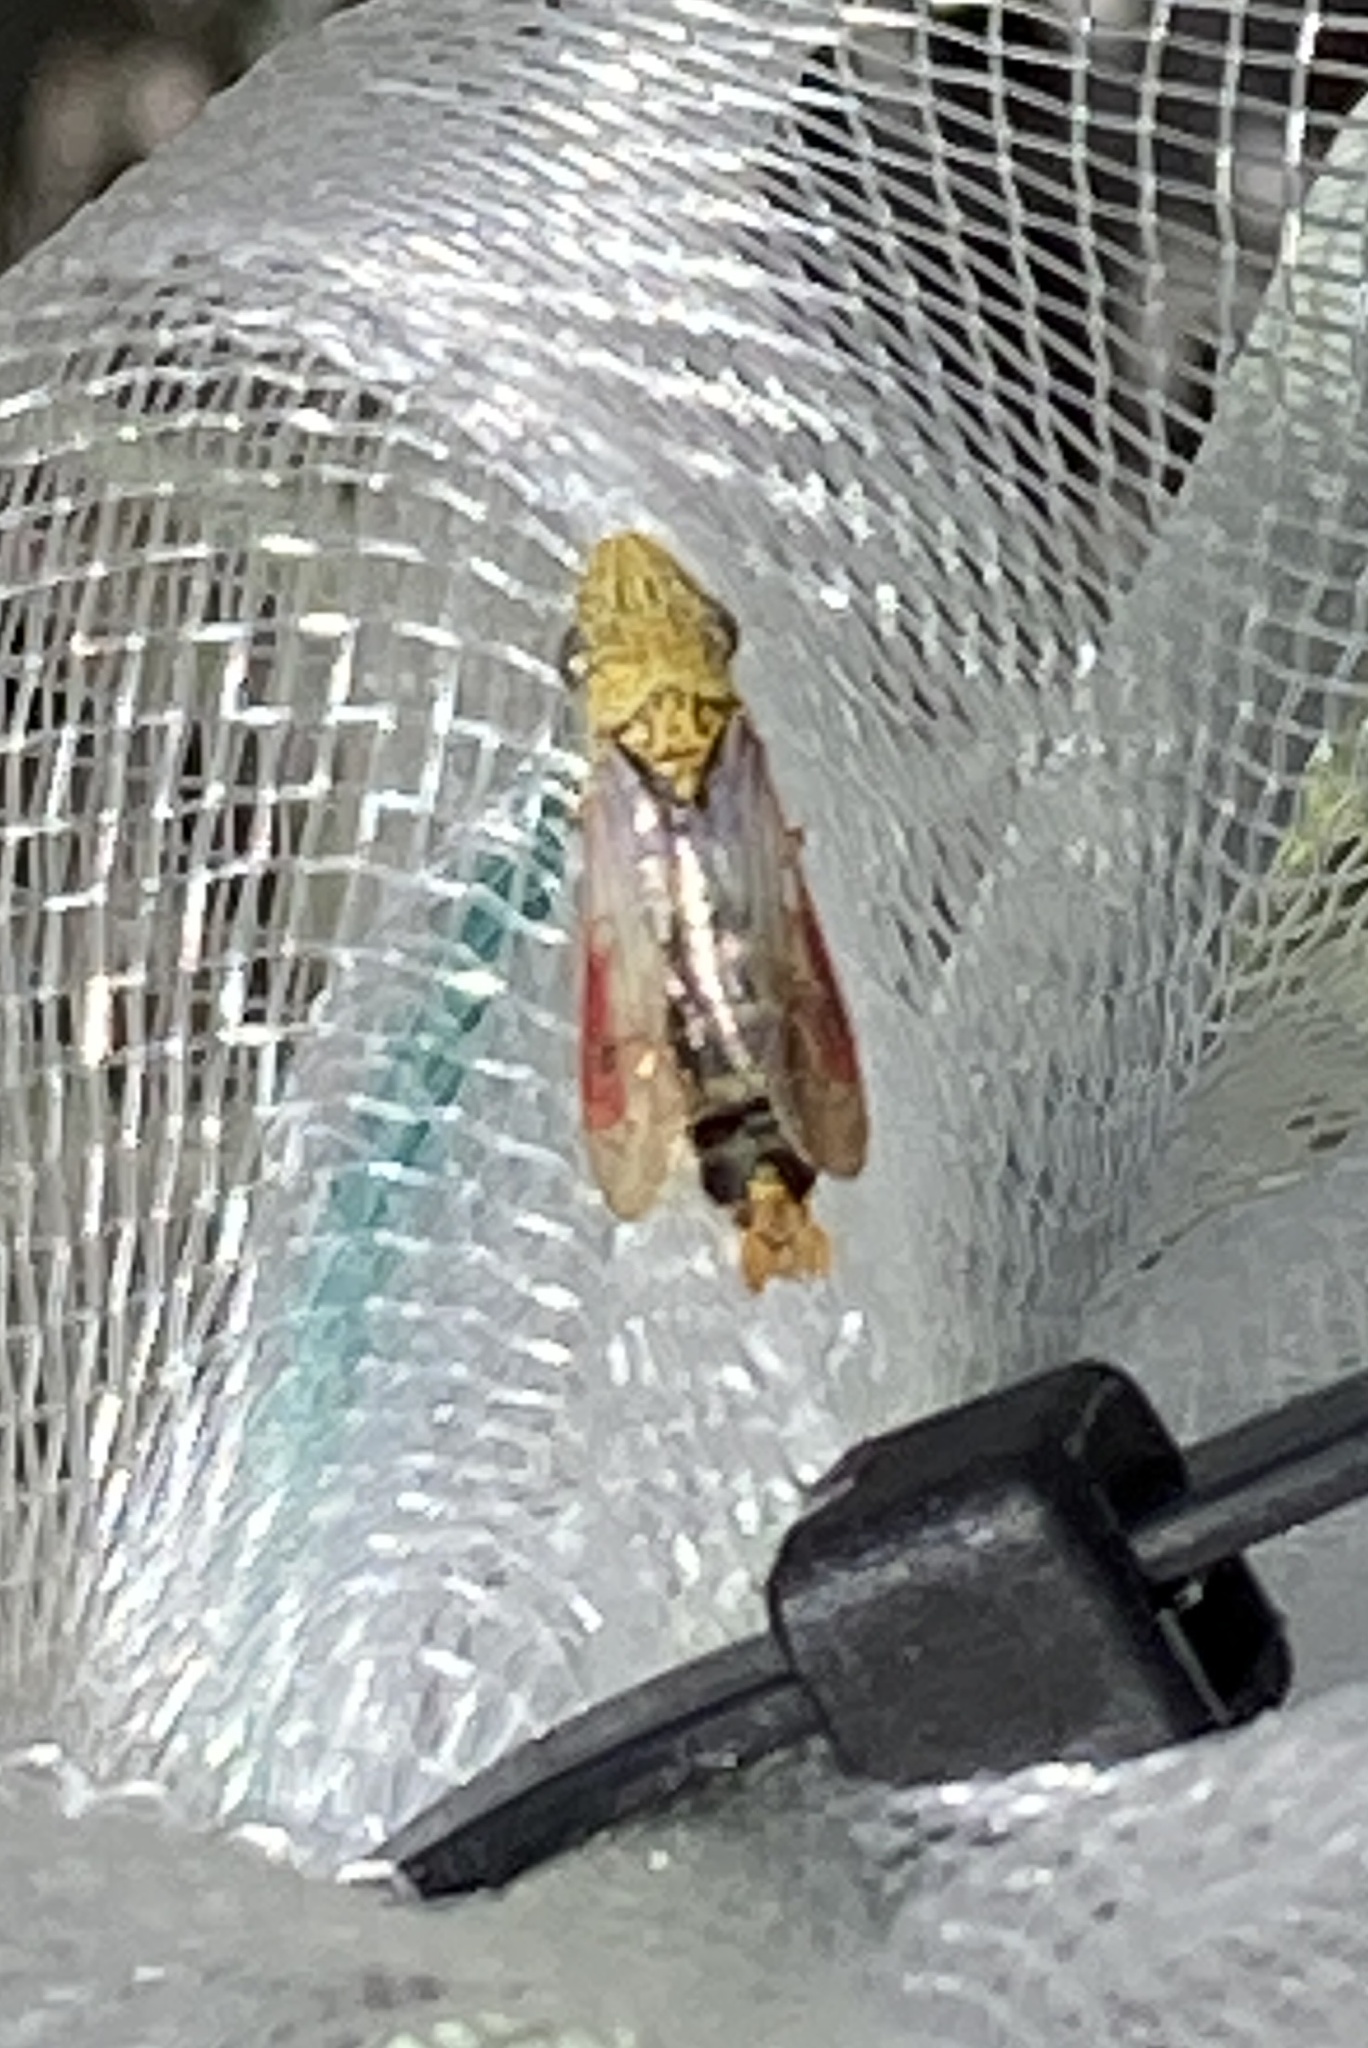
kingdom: Animalia
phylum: Arthropoda
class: Insecta
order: Hemiptera
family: Cicadellidae
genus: Homalodisca
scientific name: Homalodisca liturata
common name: Lacertate sharpshooter
